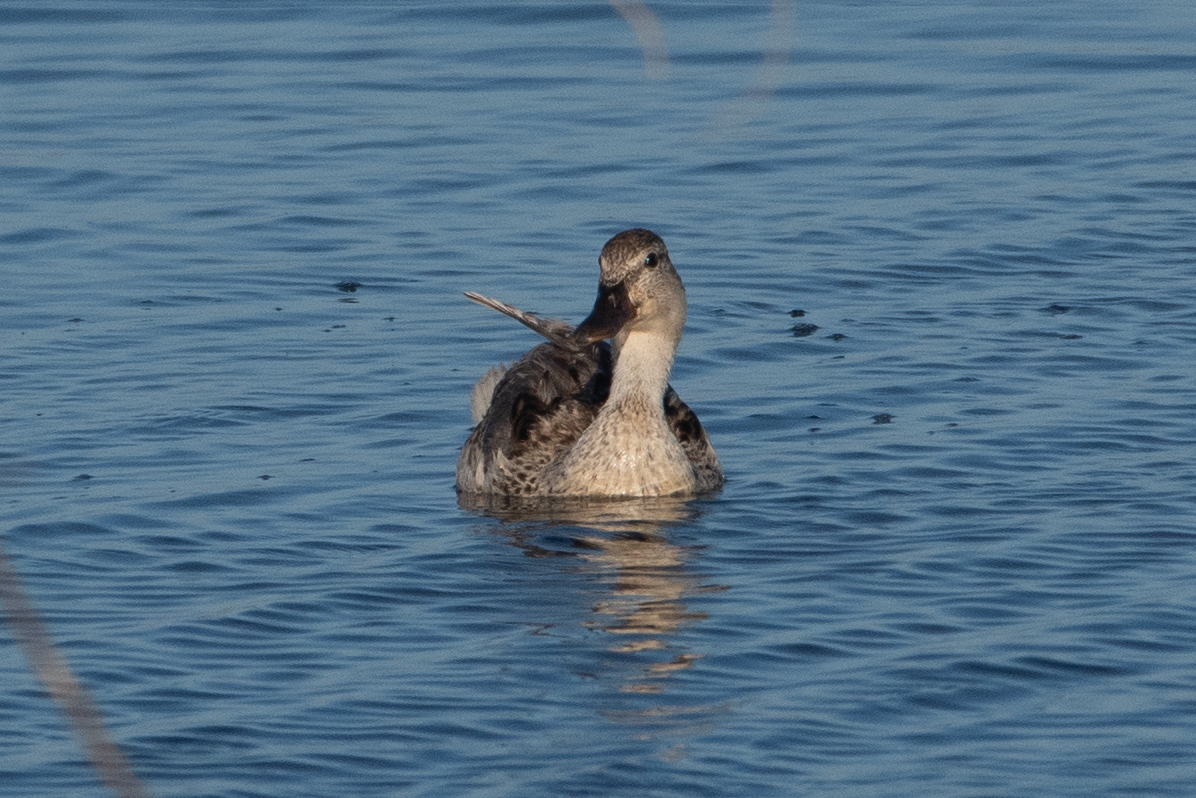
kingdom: Animalia
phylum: Chordata
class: Aves
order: Anseriformes
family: Anatidae
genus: Anas
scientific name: Anas platyrhynchos
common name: Mallard
